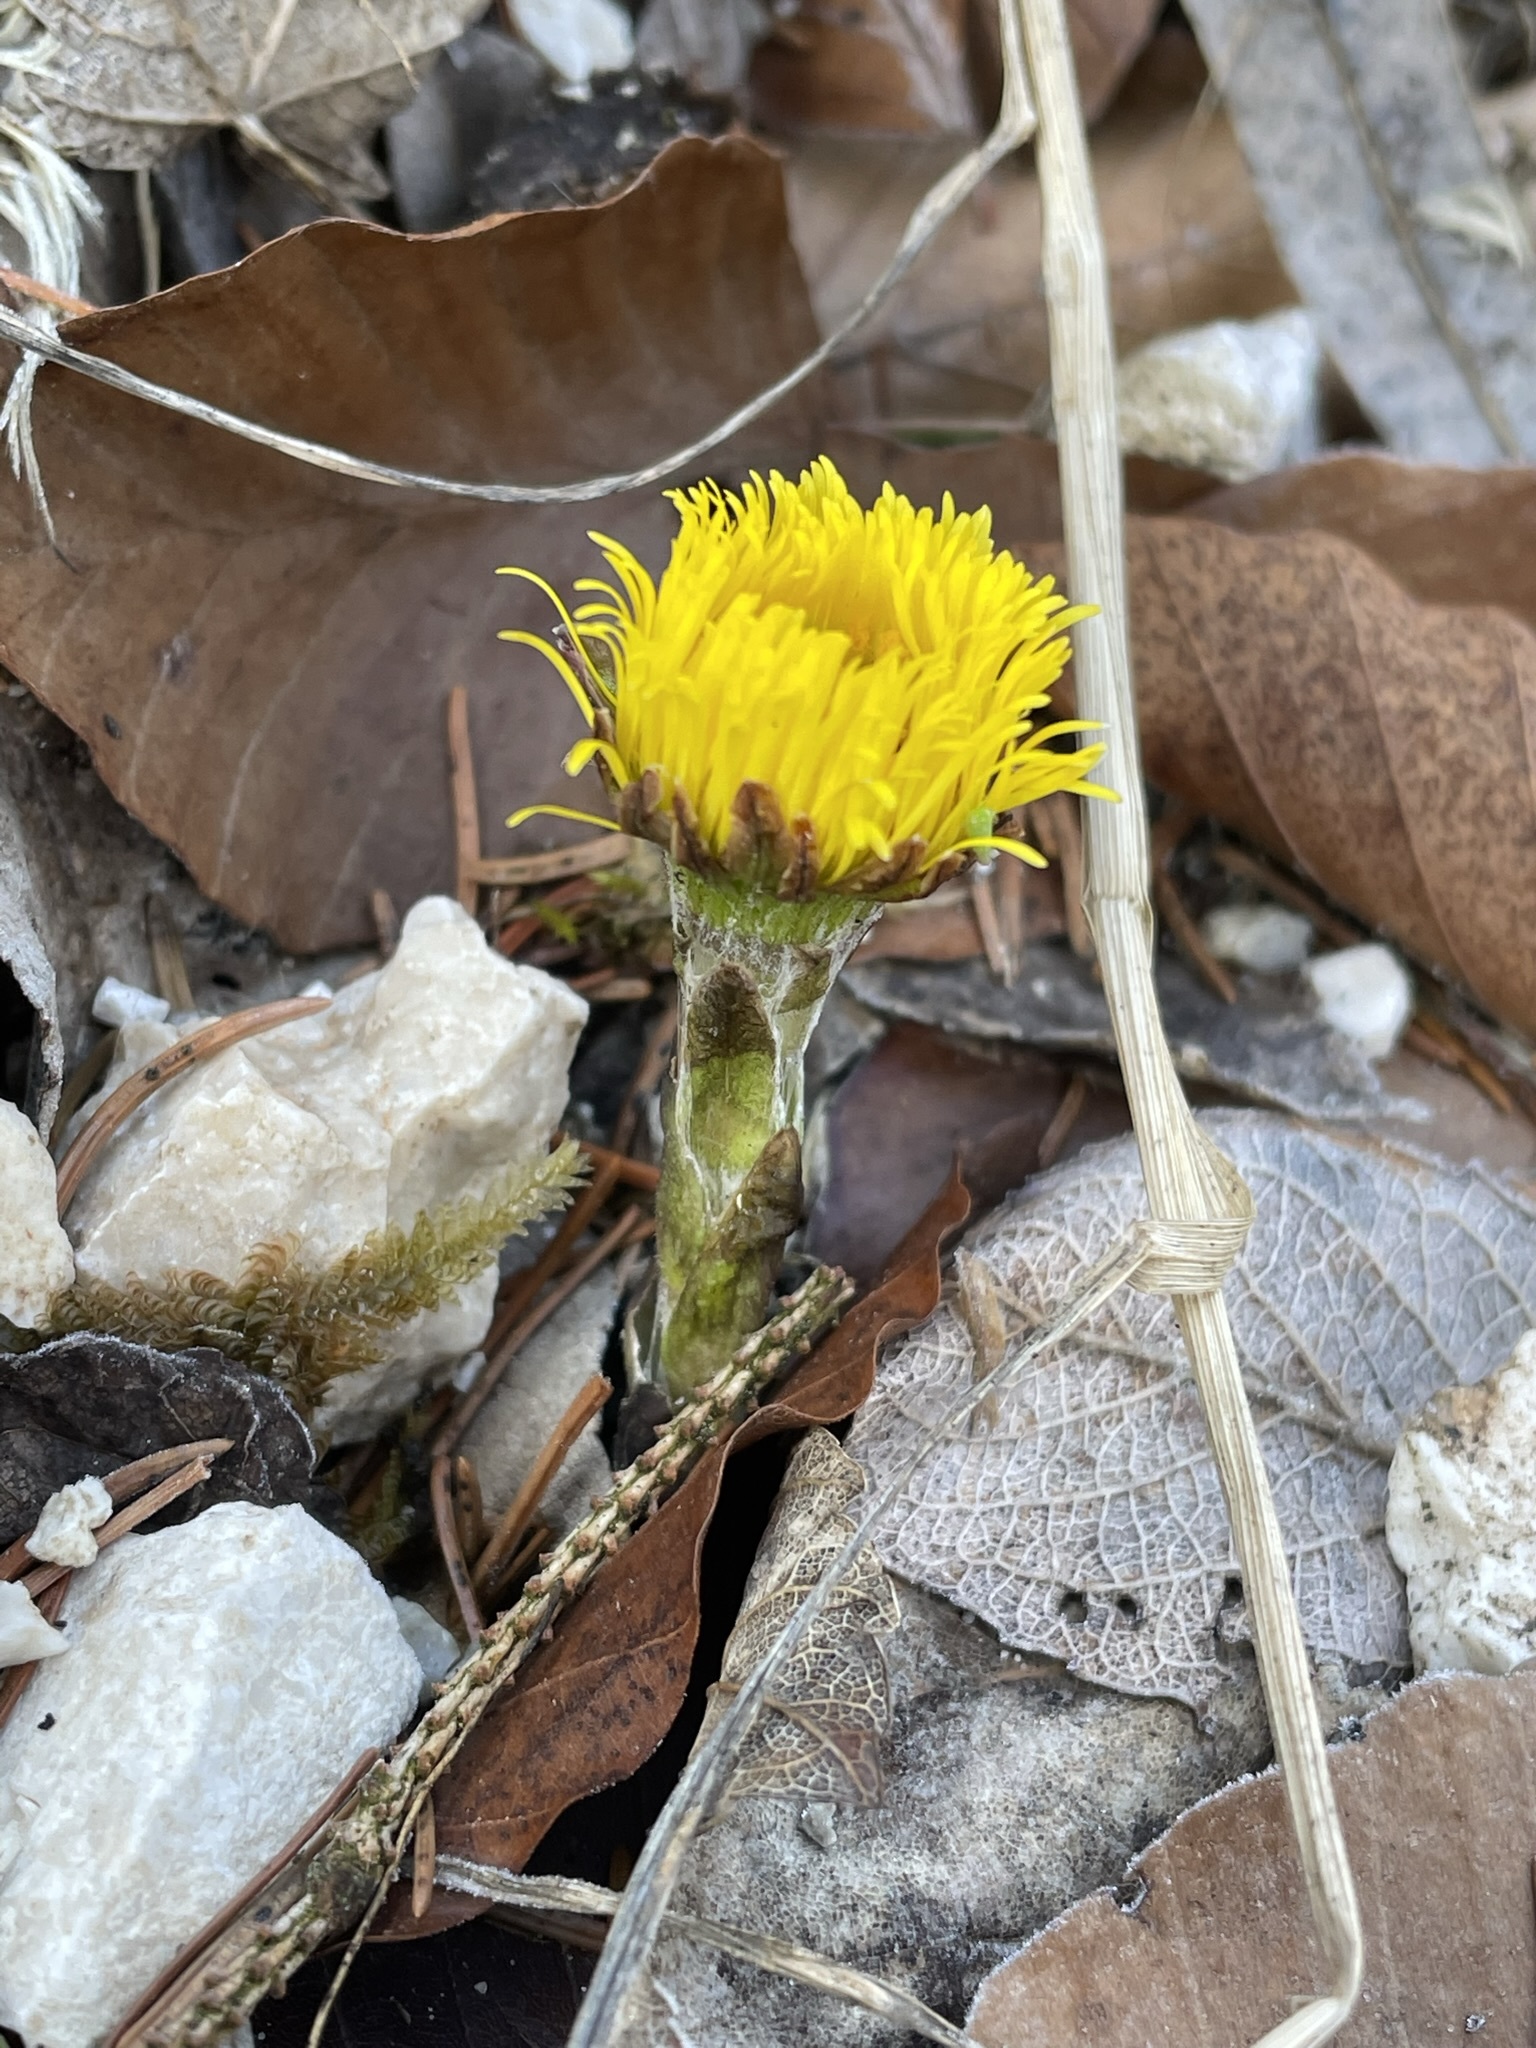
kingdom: Plantae
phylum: Tracheophyta
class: Magnoliopsida
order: Asterales
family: Asteraceae
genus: Tussilago
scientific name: Tussilago farfara
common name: Coltsfoot
